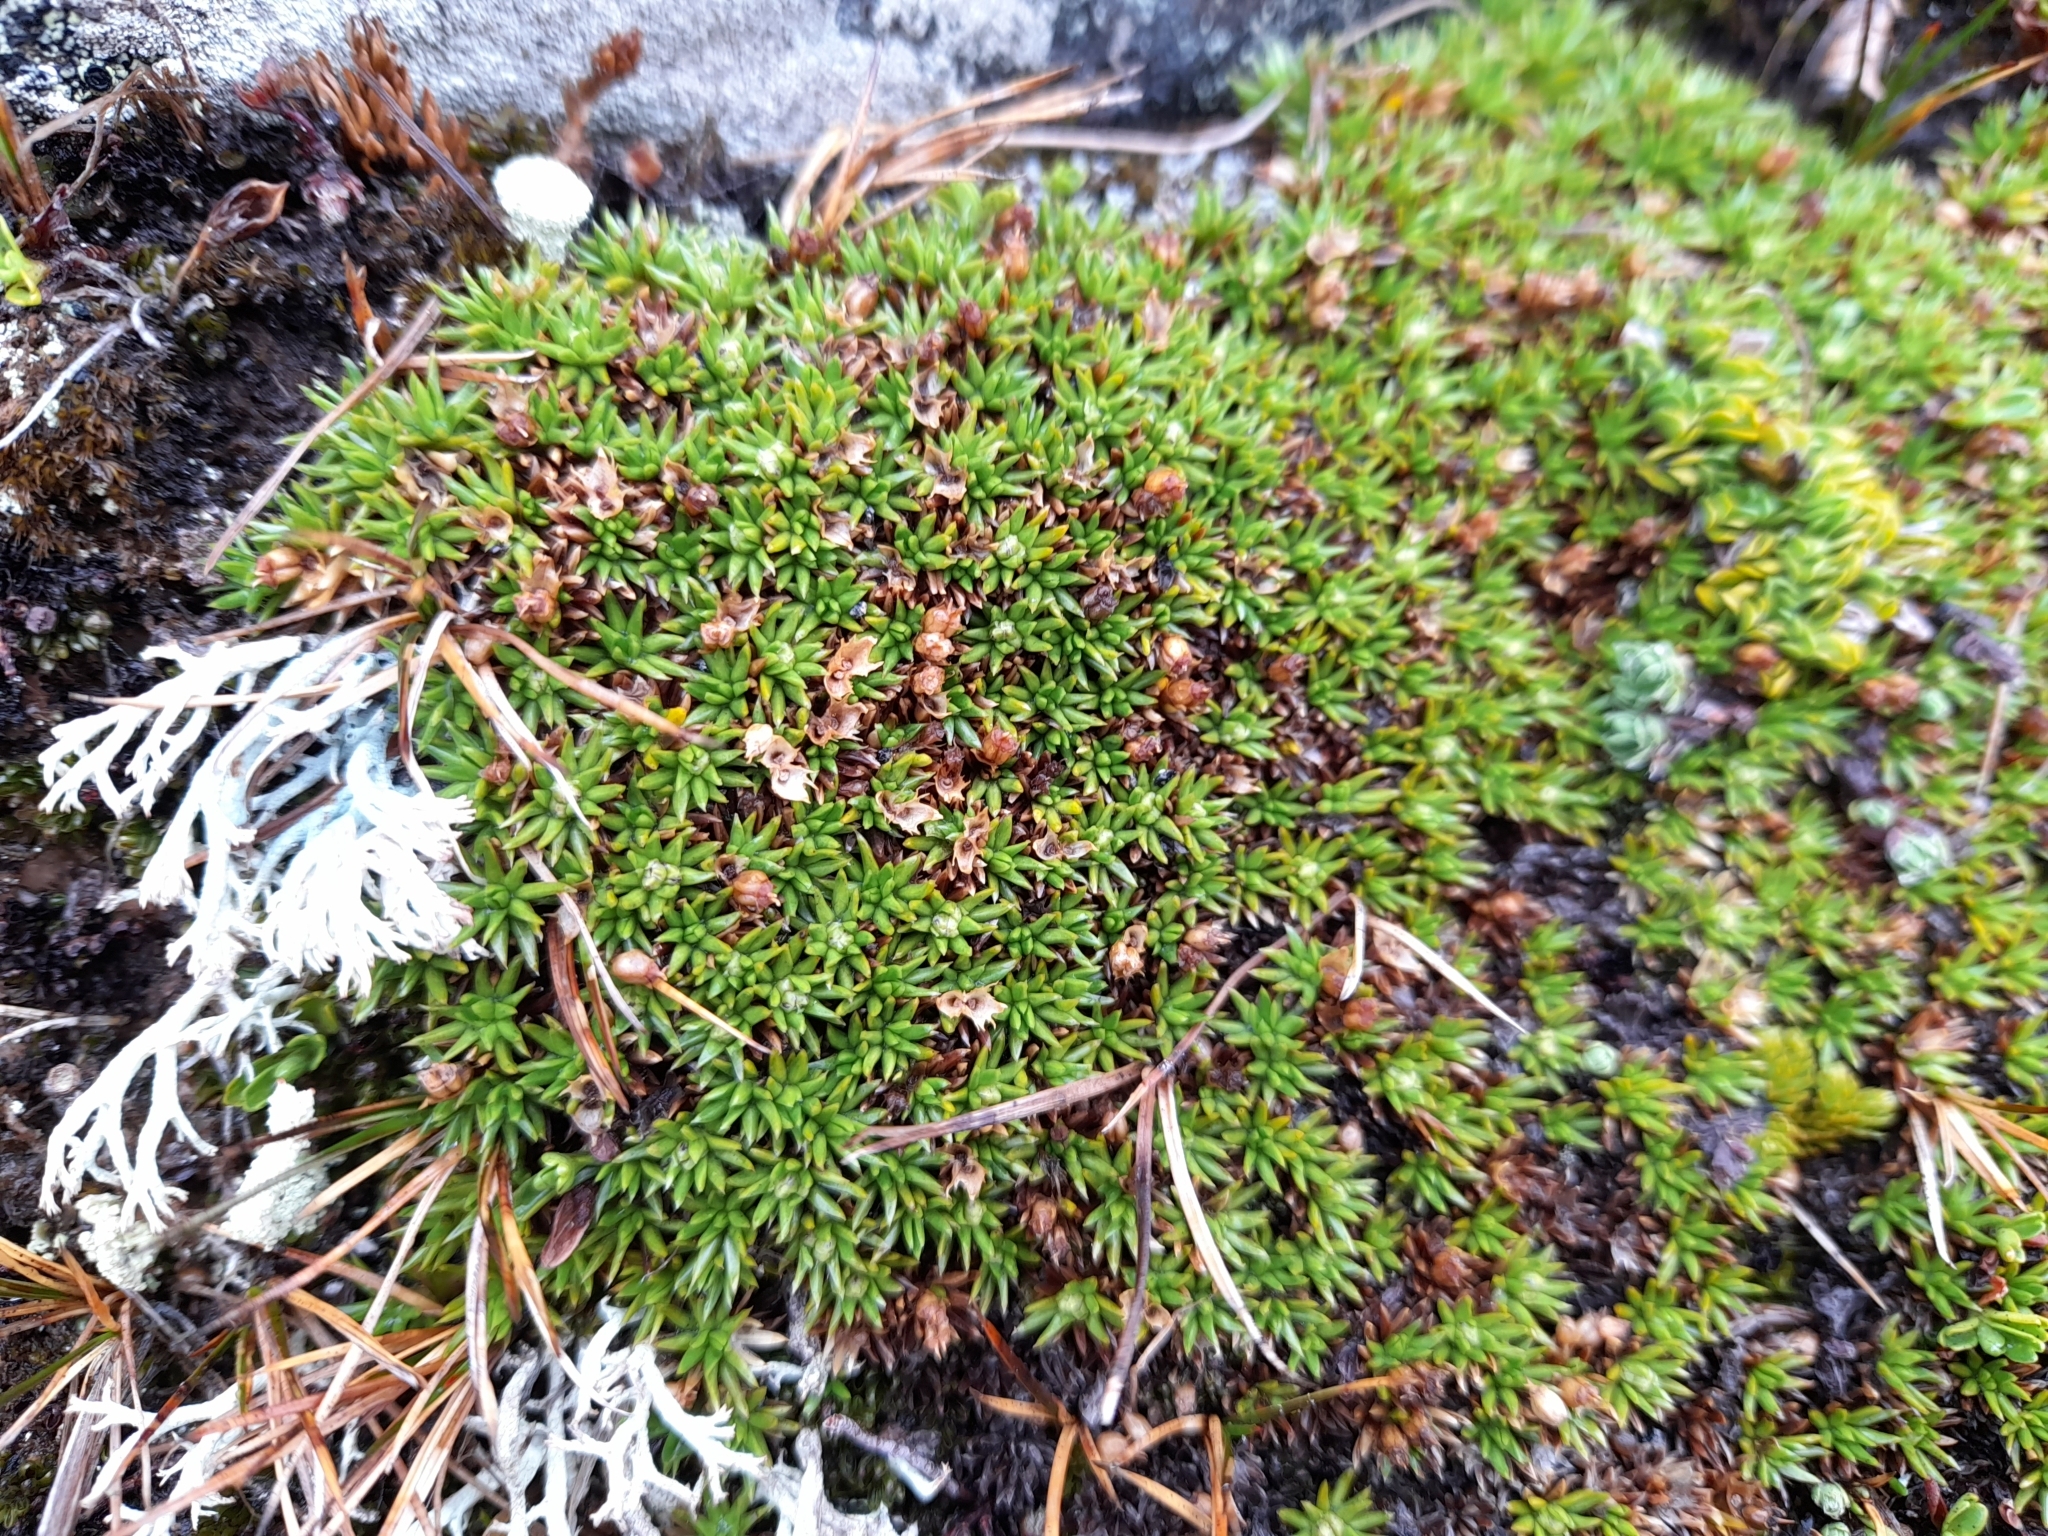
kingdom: Plantae
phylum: Tracheophyta
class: Magnoliopsida
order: Apiales
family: Apiaceae
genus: Azorella
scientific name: Azorella lycopodioides
